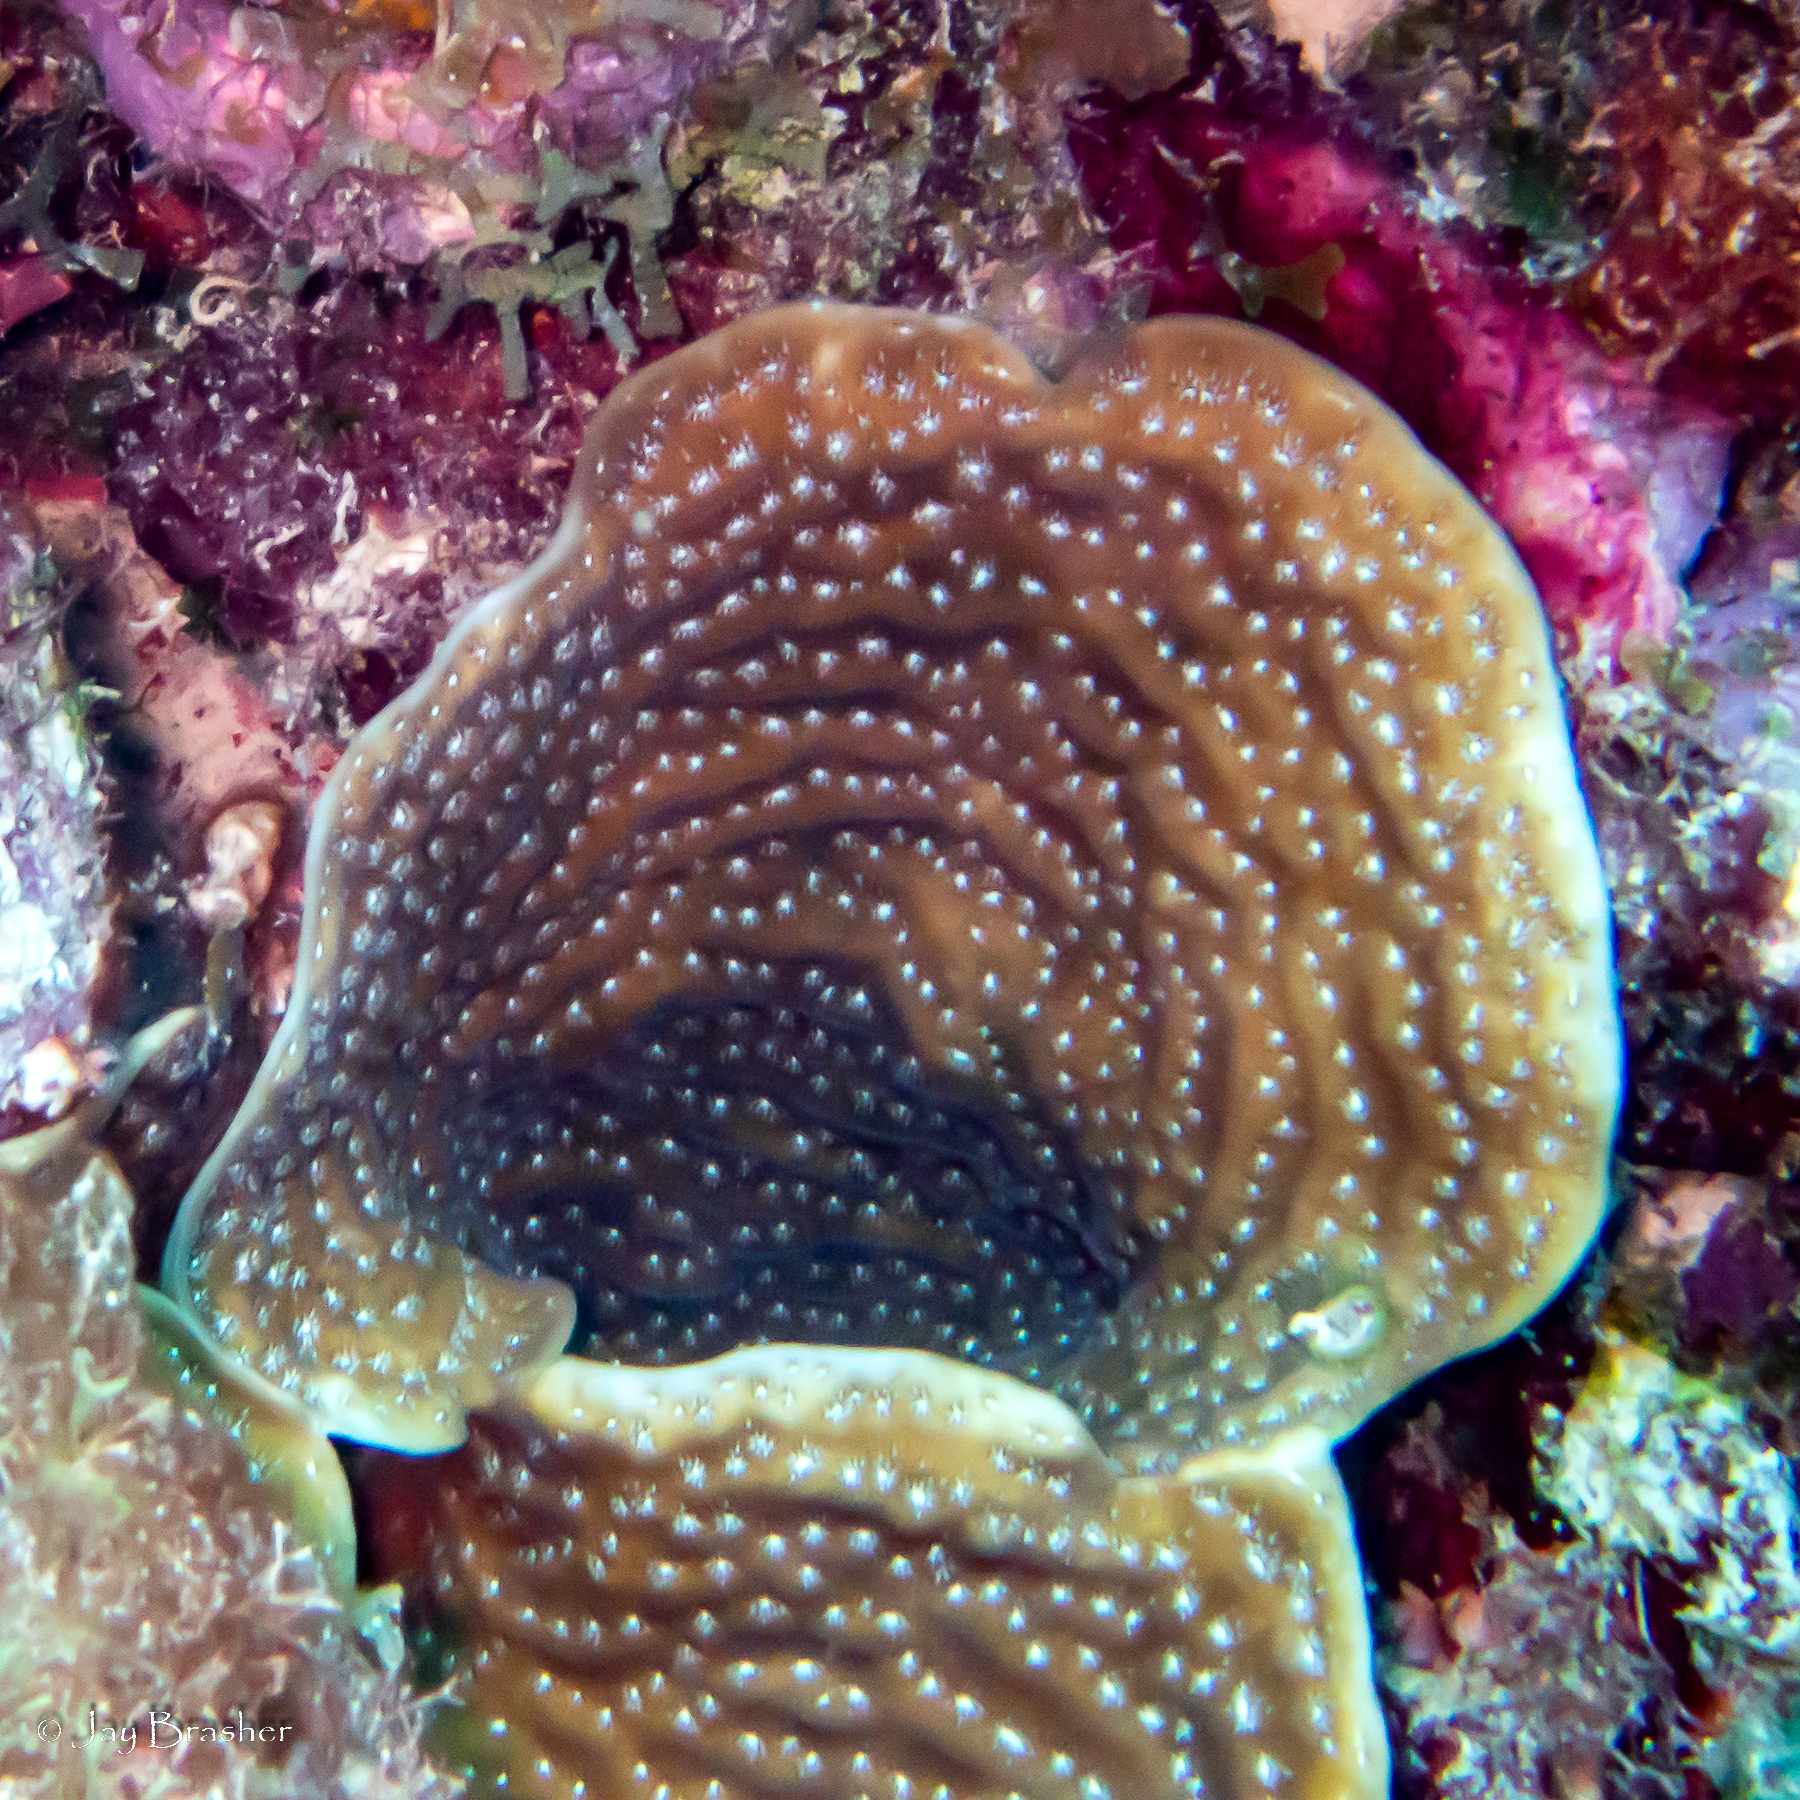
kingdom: Animalia
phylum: Cnidaria
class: Anthozoa
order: Scleractinia
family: Agariciidae
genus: Agaricia
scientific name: Agaricia lamarcki
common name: Lamarck's sheet coral
